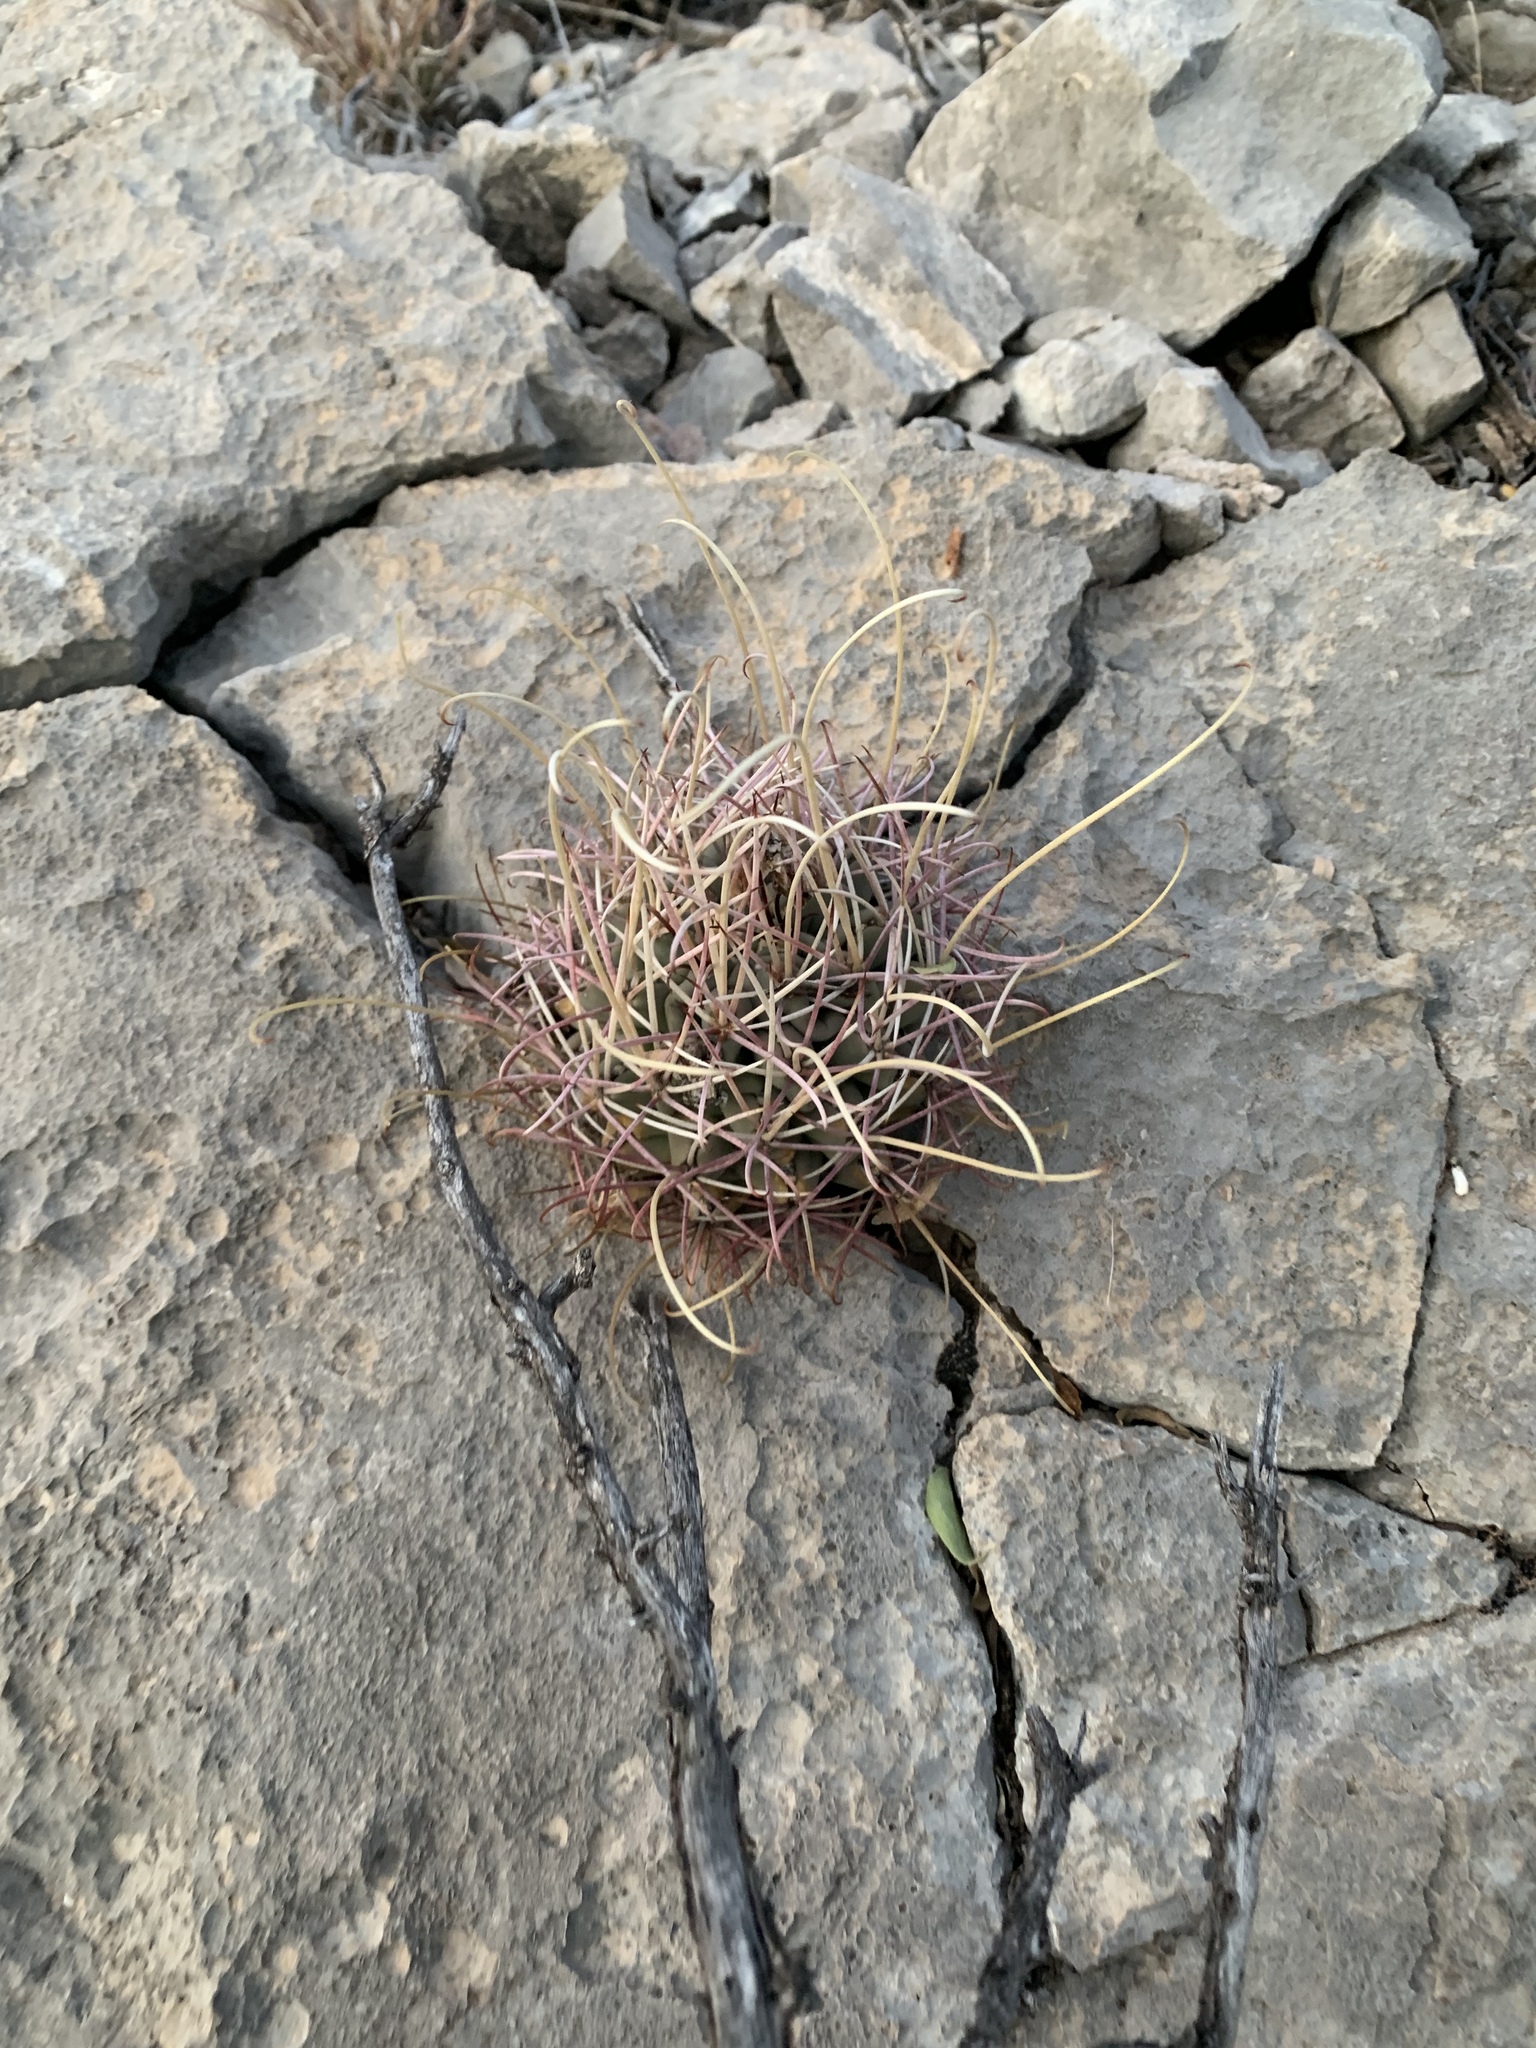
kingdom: Plantae
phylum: Tracheophyta
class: Magnoliopsida
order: Caryophyllales
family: Cactaceae
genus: Ferocactus
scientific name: Ferocactus uncinatus
